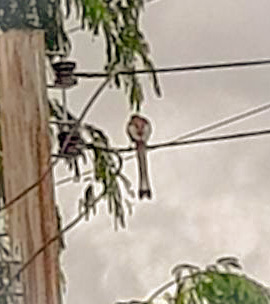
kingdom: Animalia
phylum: Chordata
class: Aves
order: Passeriformes
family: Corvidae
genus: Dendrocitta
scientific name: Dendrocitta vagabunda
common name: Rufous treepie
